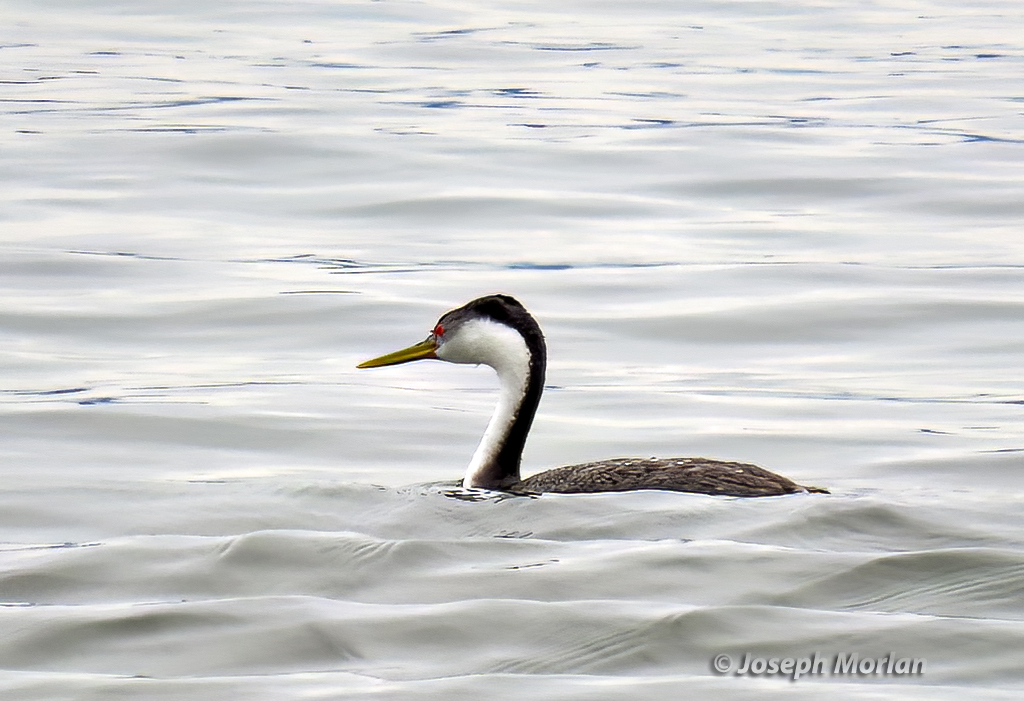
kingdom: Animalia
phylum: Chordata
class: Aves
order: Podicipediformes
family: Podicipedidae
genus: Aechmophorus
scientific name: Aechmophorus occidentalis
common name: Western grebe
